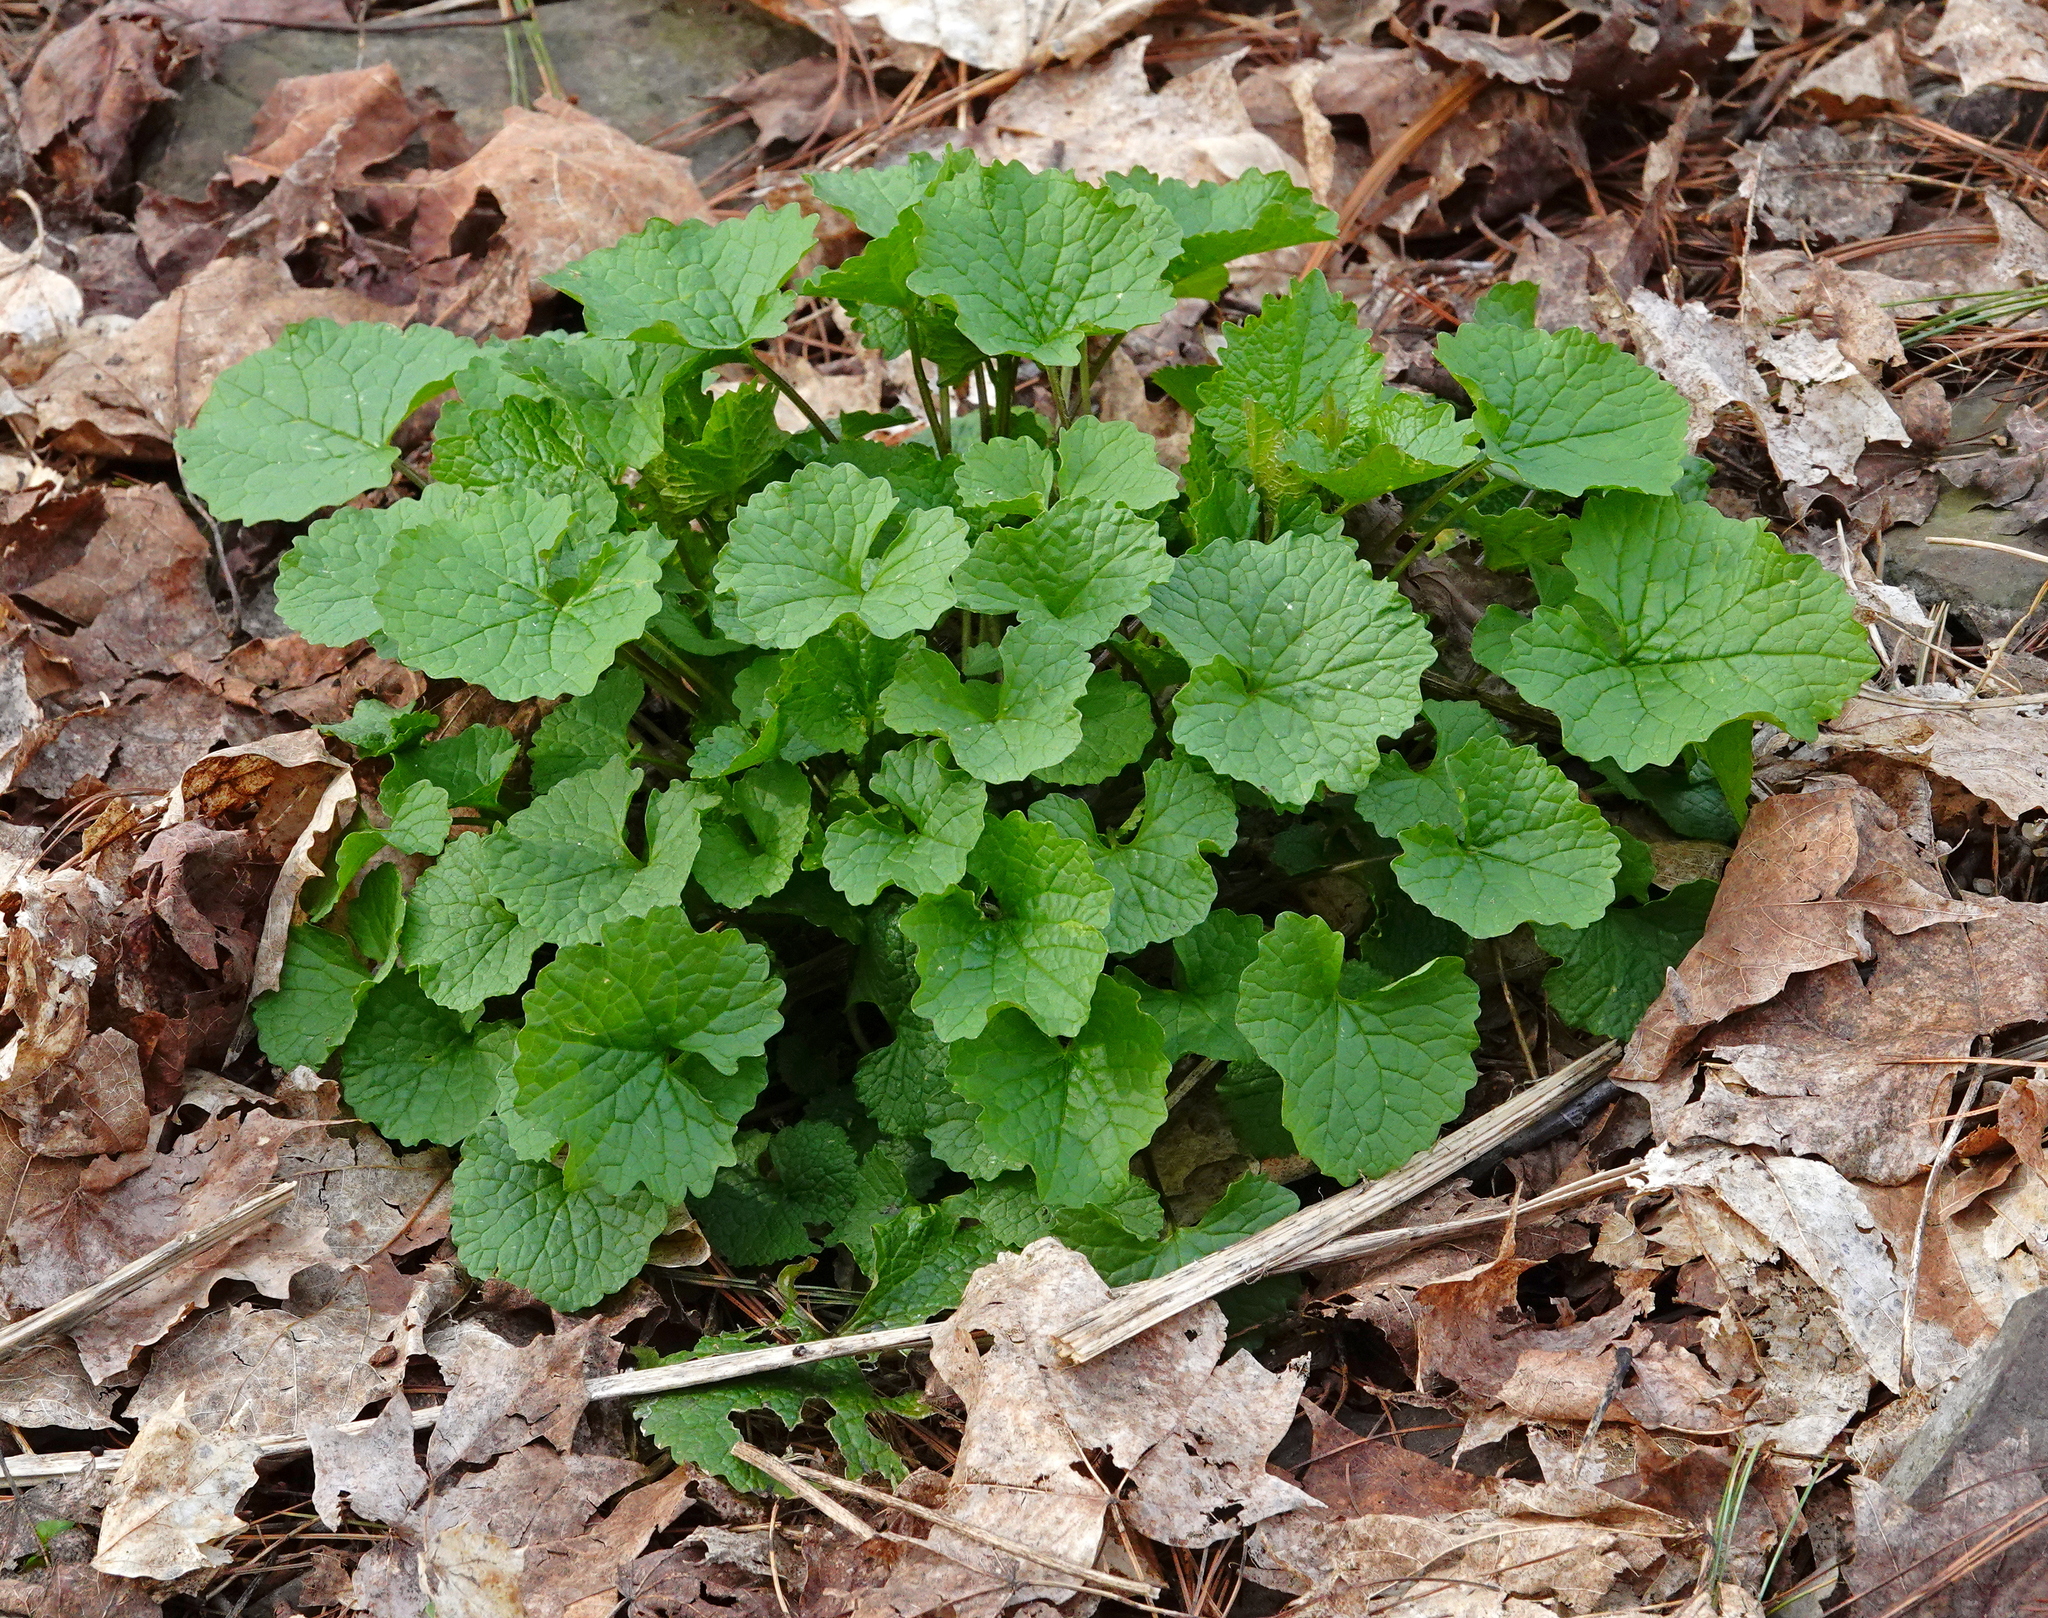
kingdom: Plantae
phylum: Tracheophyta
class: Magnoliopsida
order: Brassicales
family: Brassicaceae
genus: Alliaria
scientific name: Alliaria petiolata
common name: Garlic mustard
